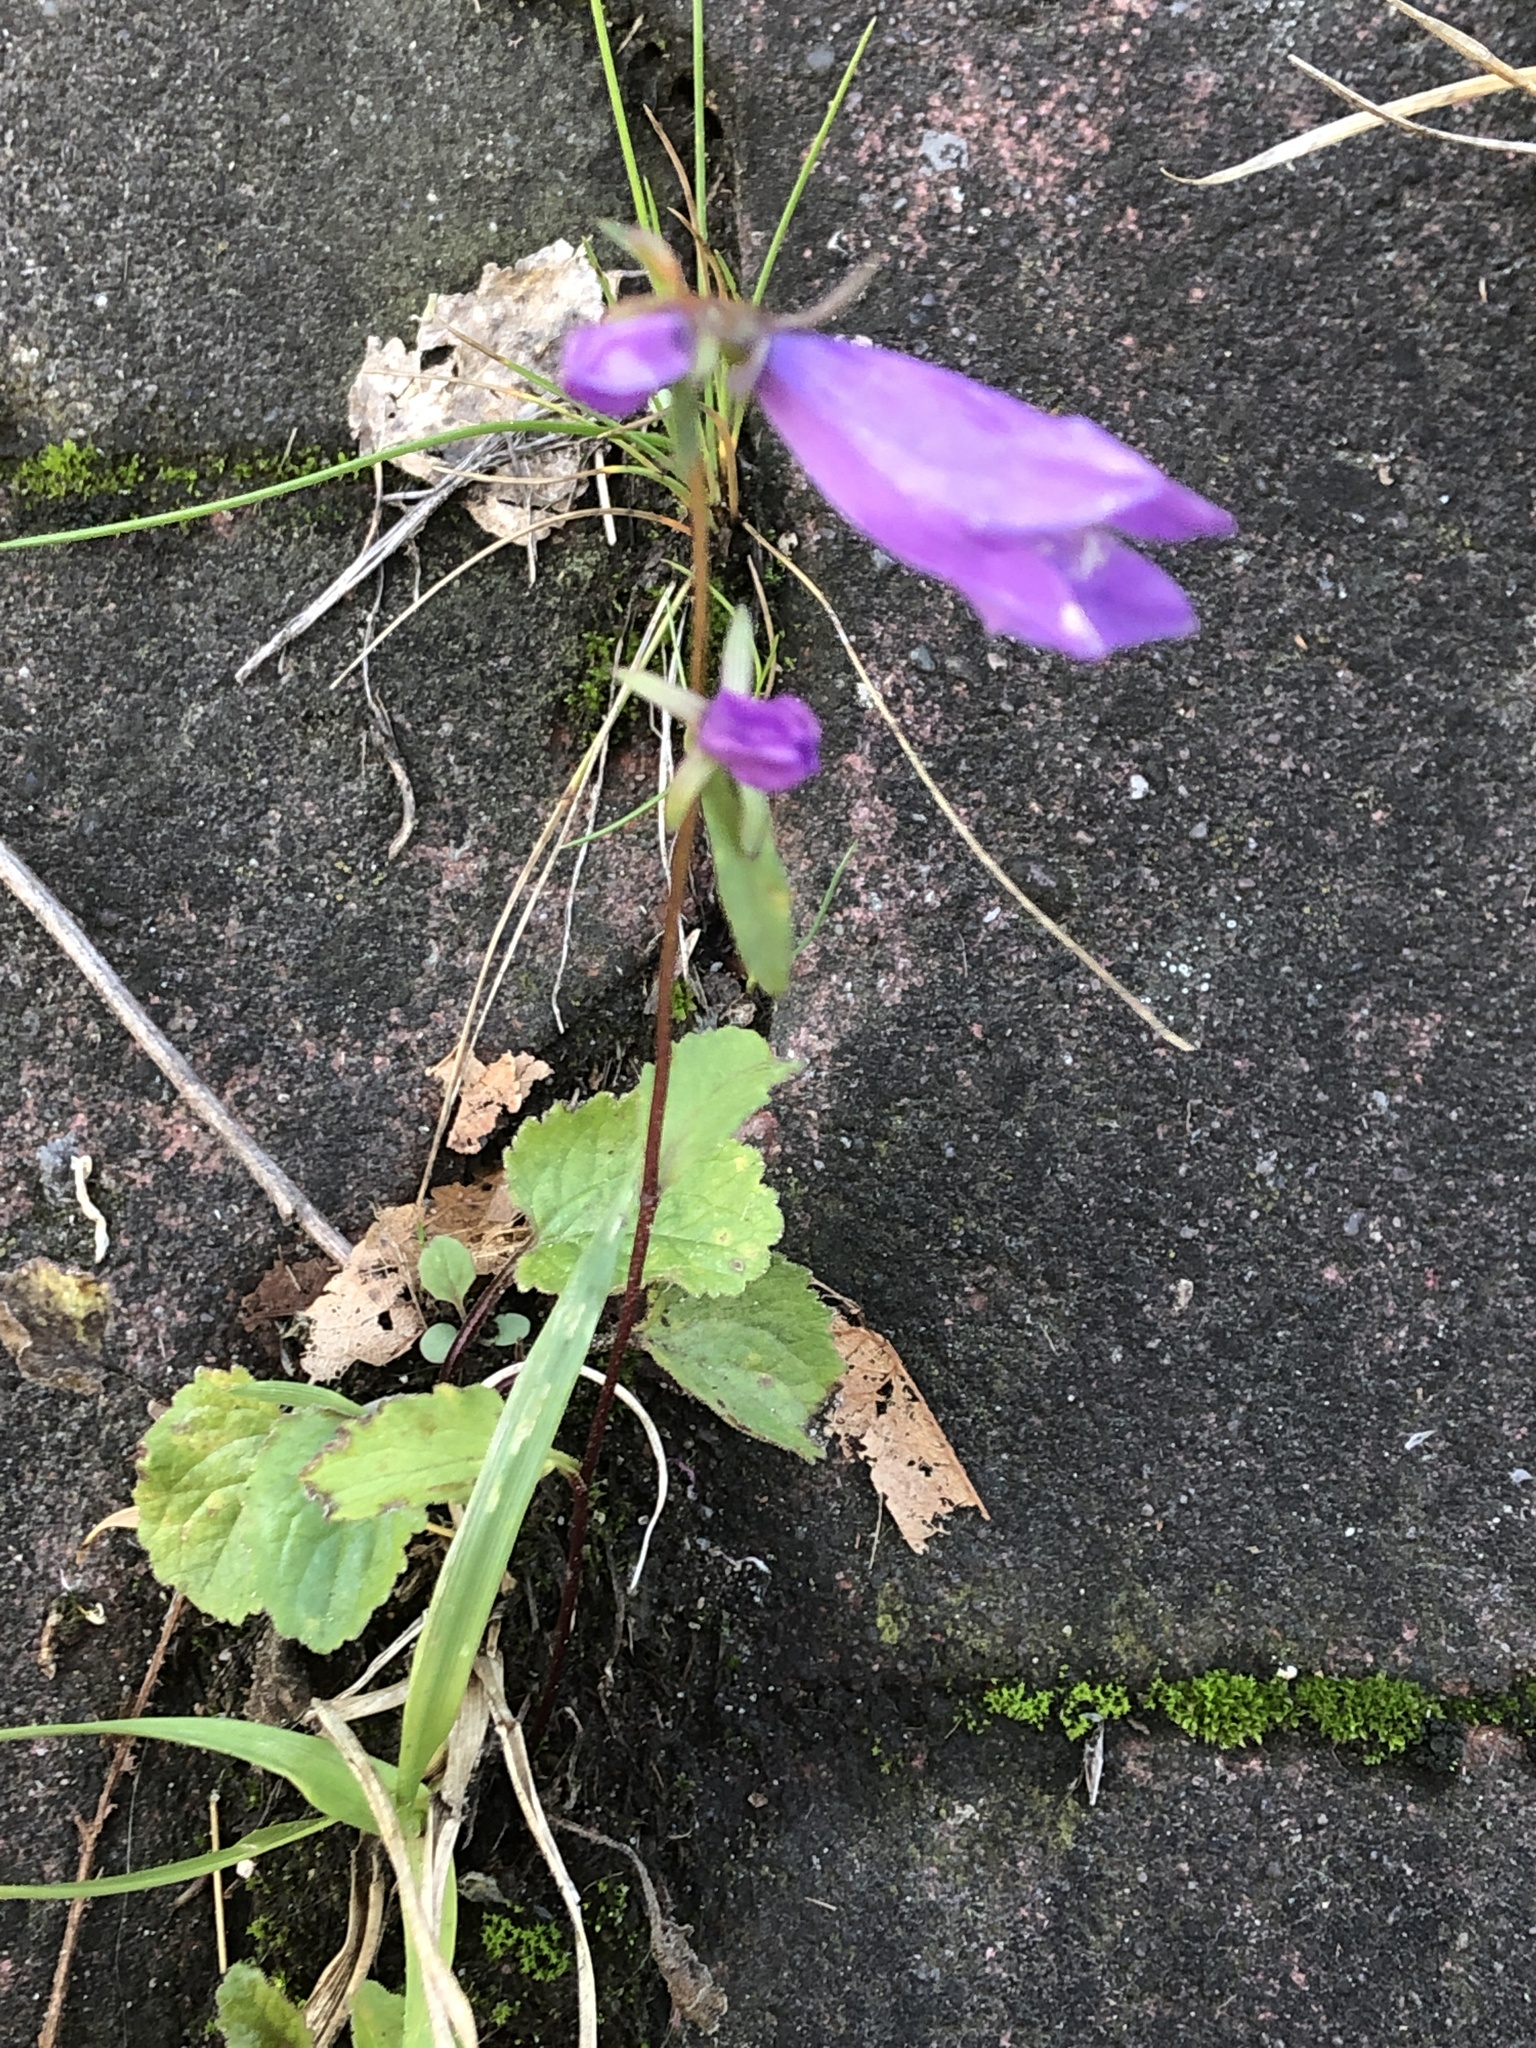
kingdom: Plantae
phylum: Tracheophyta
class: Magnoliopsida
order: Asterales
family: Campanulaceae
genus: Campanula
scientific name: Campanula rapunculoides
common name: Creeping bellflower
